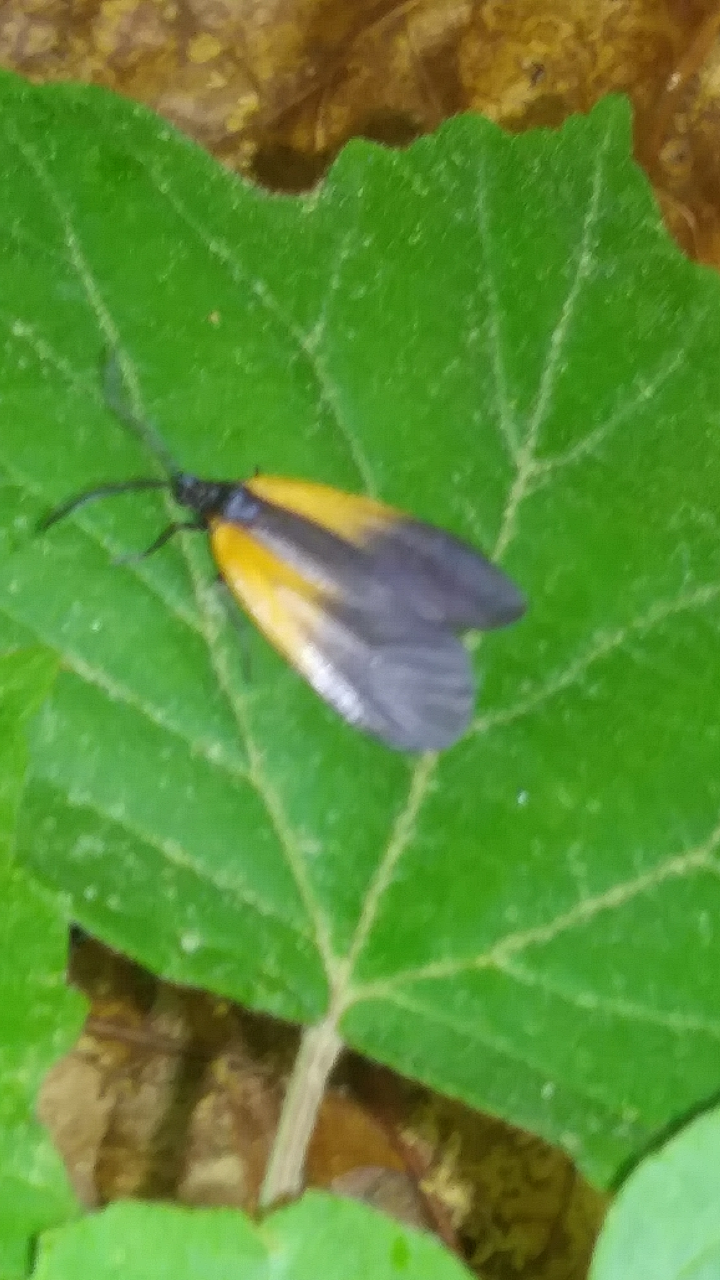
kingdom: Animalia
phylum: Arthropoda
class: Insecta
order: Lepidoptera
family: Zygaenidae
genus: Malthaca
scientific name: Malthaca dimidiata
